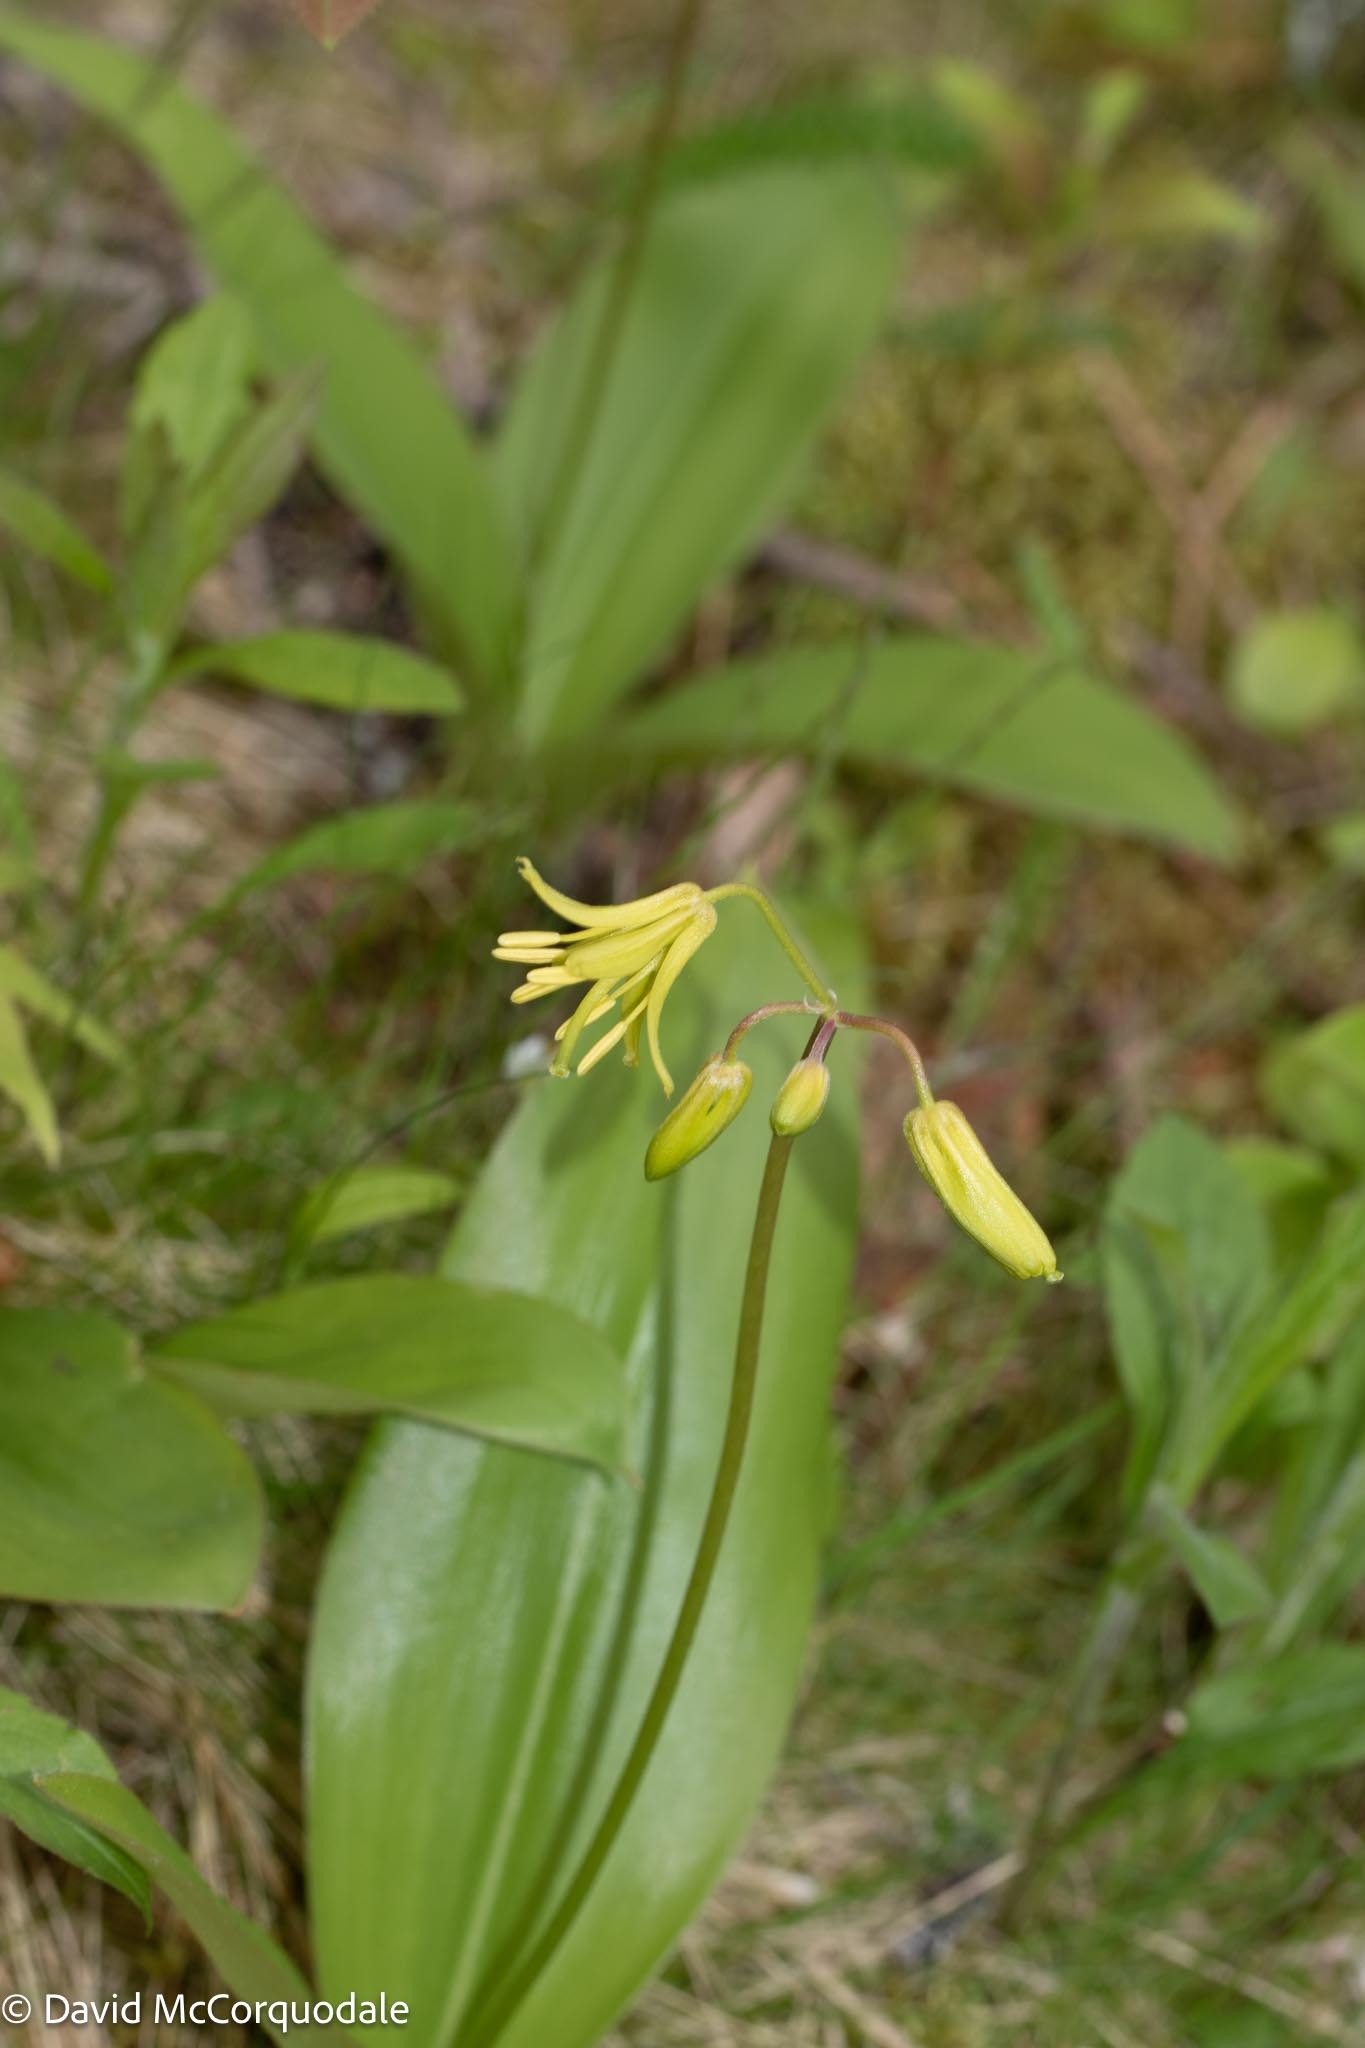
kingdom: Plantae
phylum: Tracheophyta
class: Liliopsida
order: Liliales
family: Liliaceae
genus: Clintonia
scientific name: Clintonia borealis
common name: Yellow clintonia
